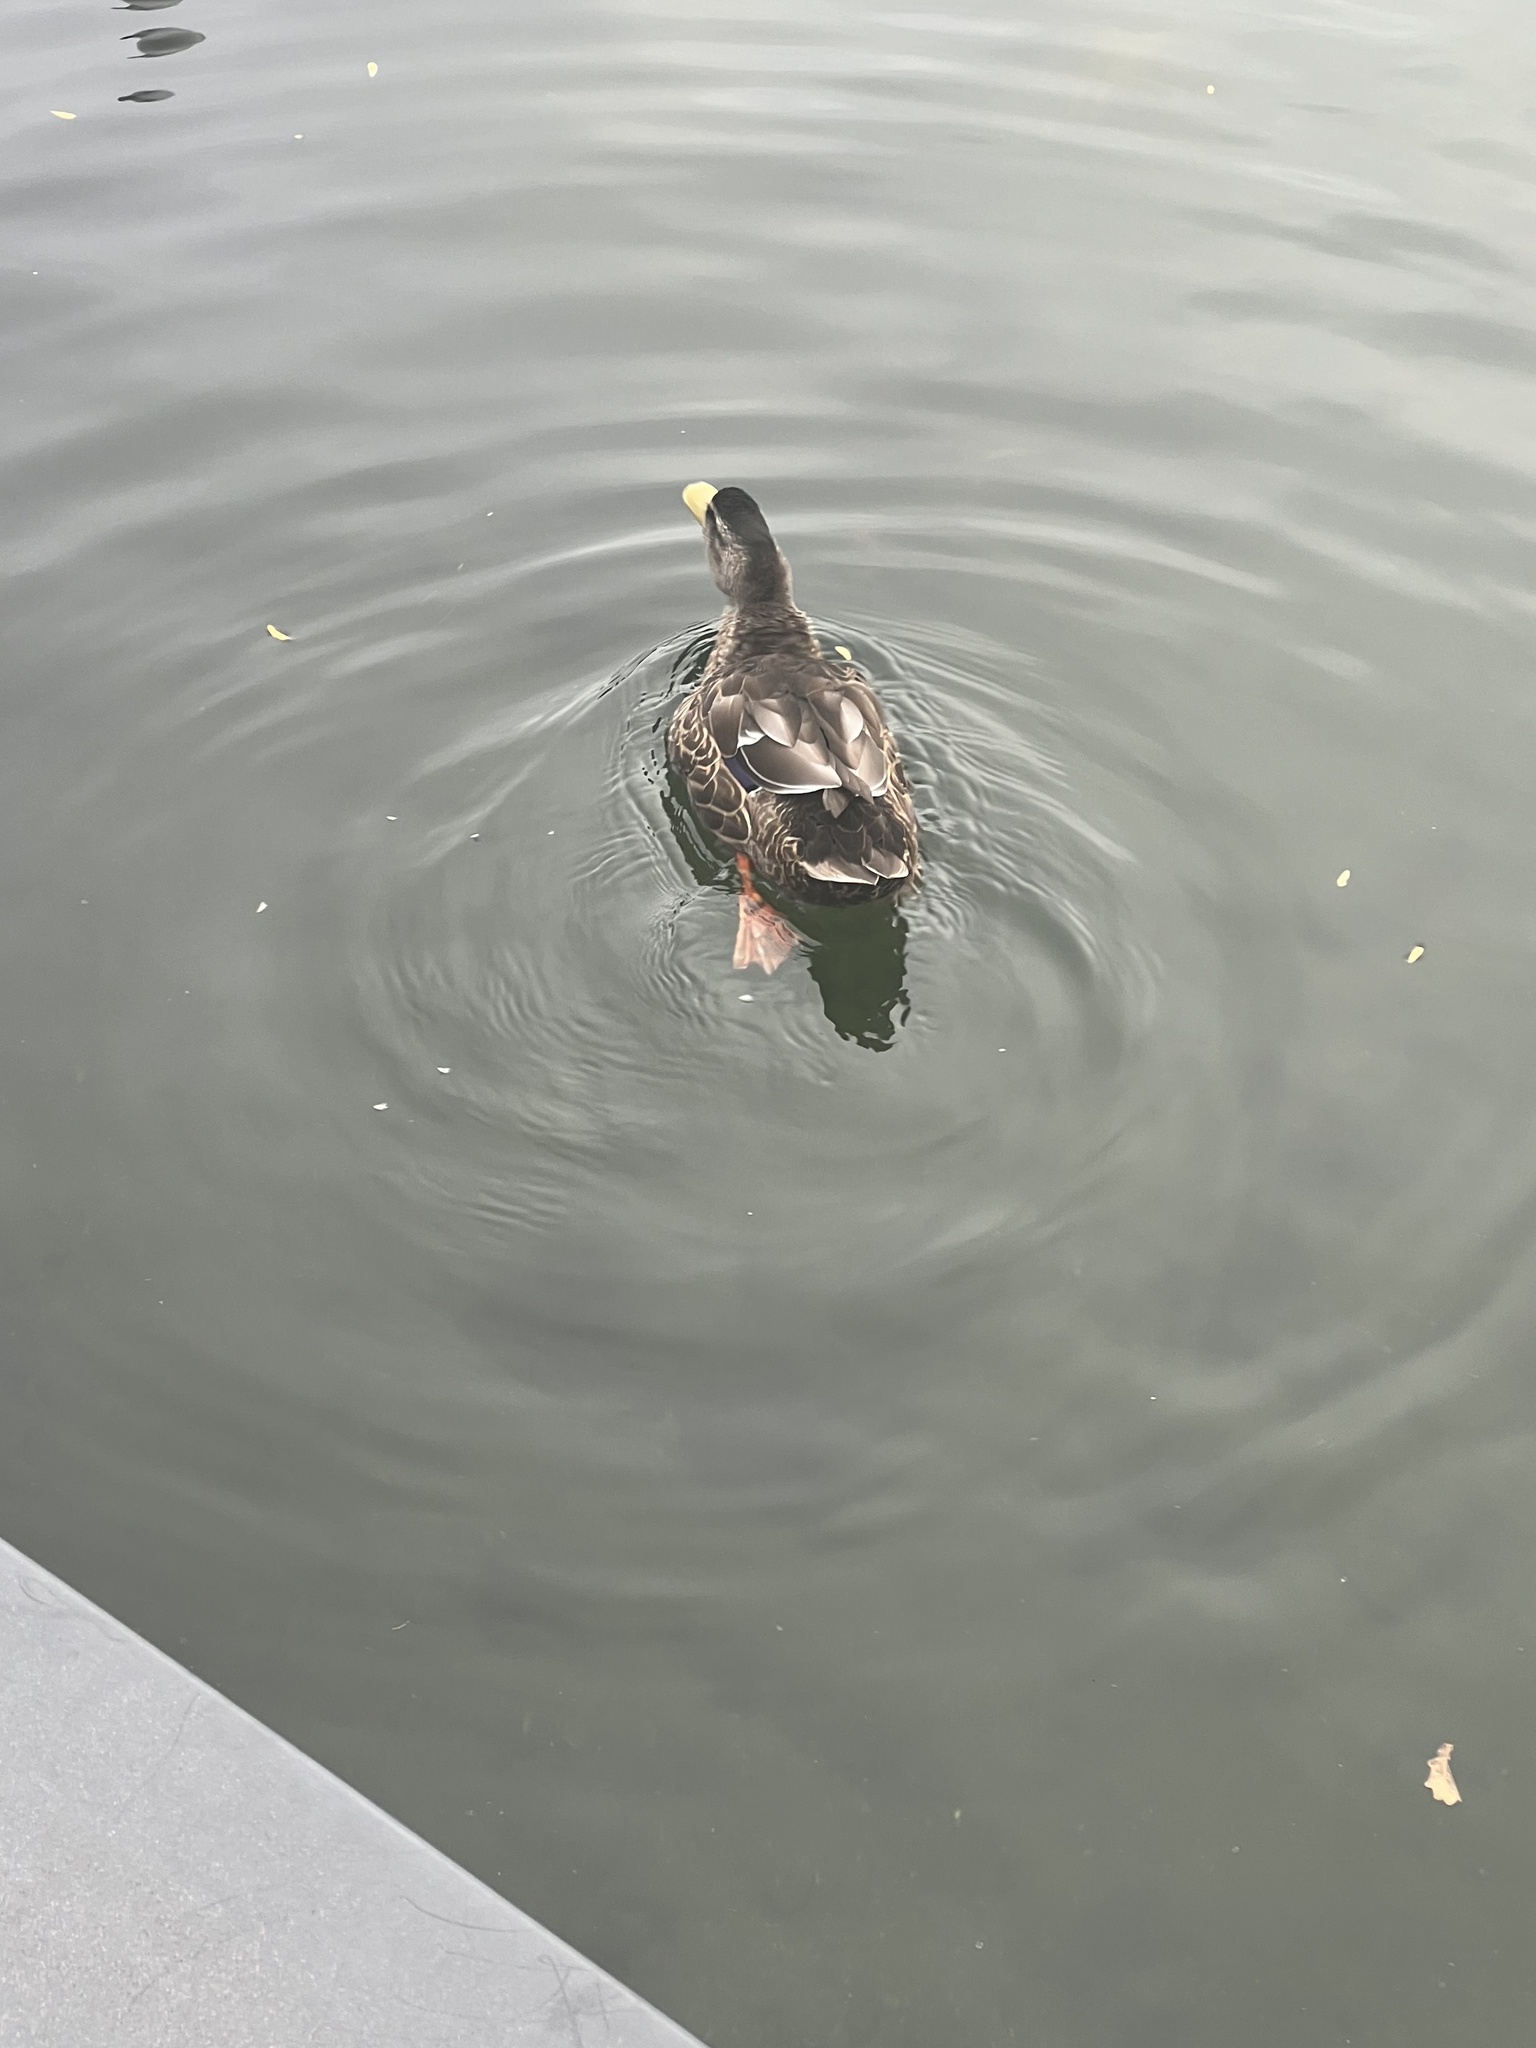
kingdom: Animalia
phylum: Chordata
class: Aves
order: Anseriformes
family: Anatidae
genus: Anas
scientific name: Anas
